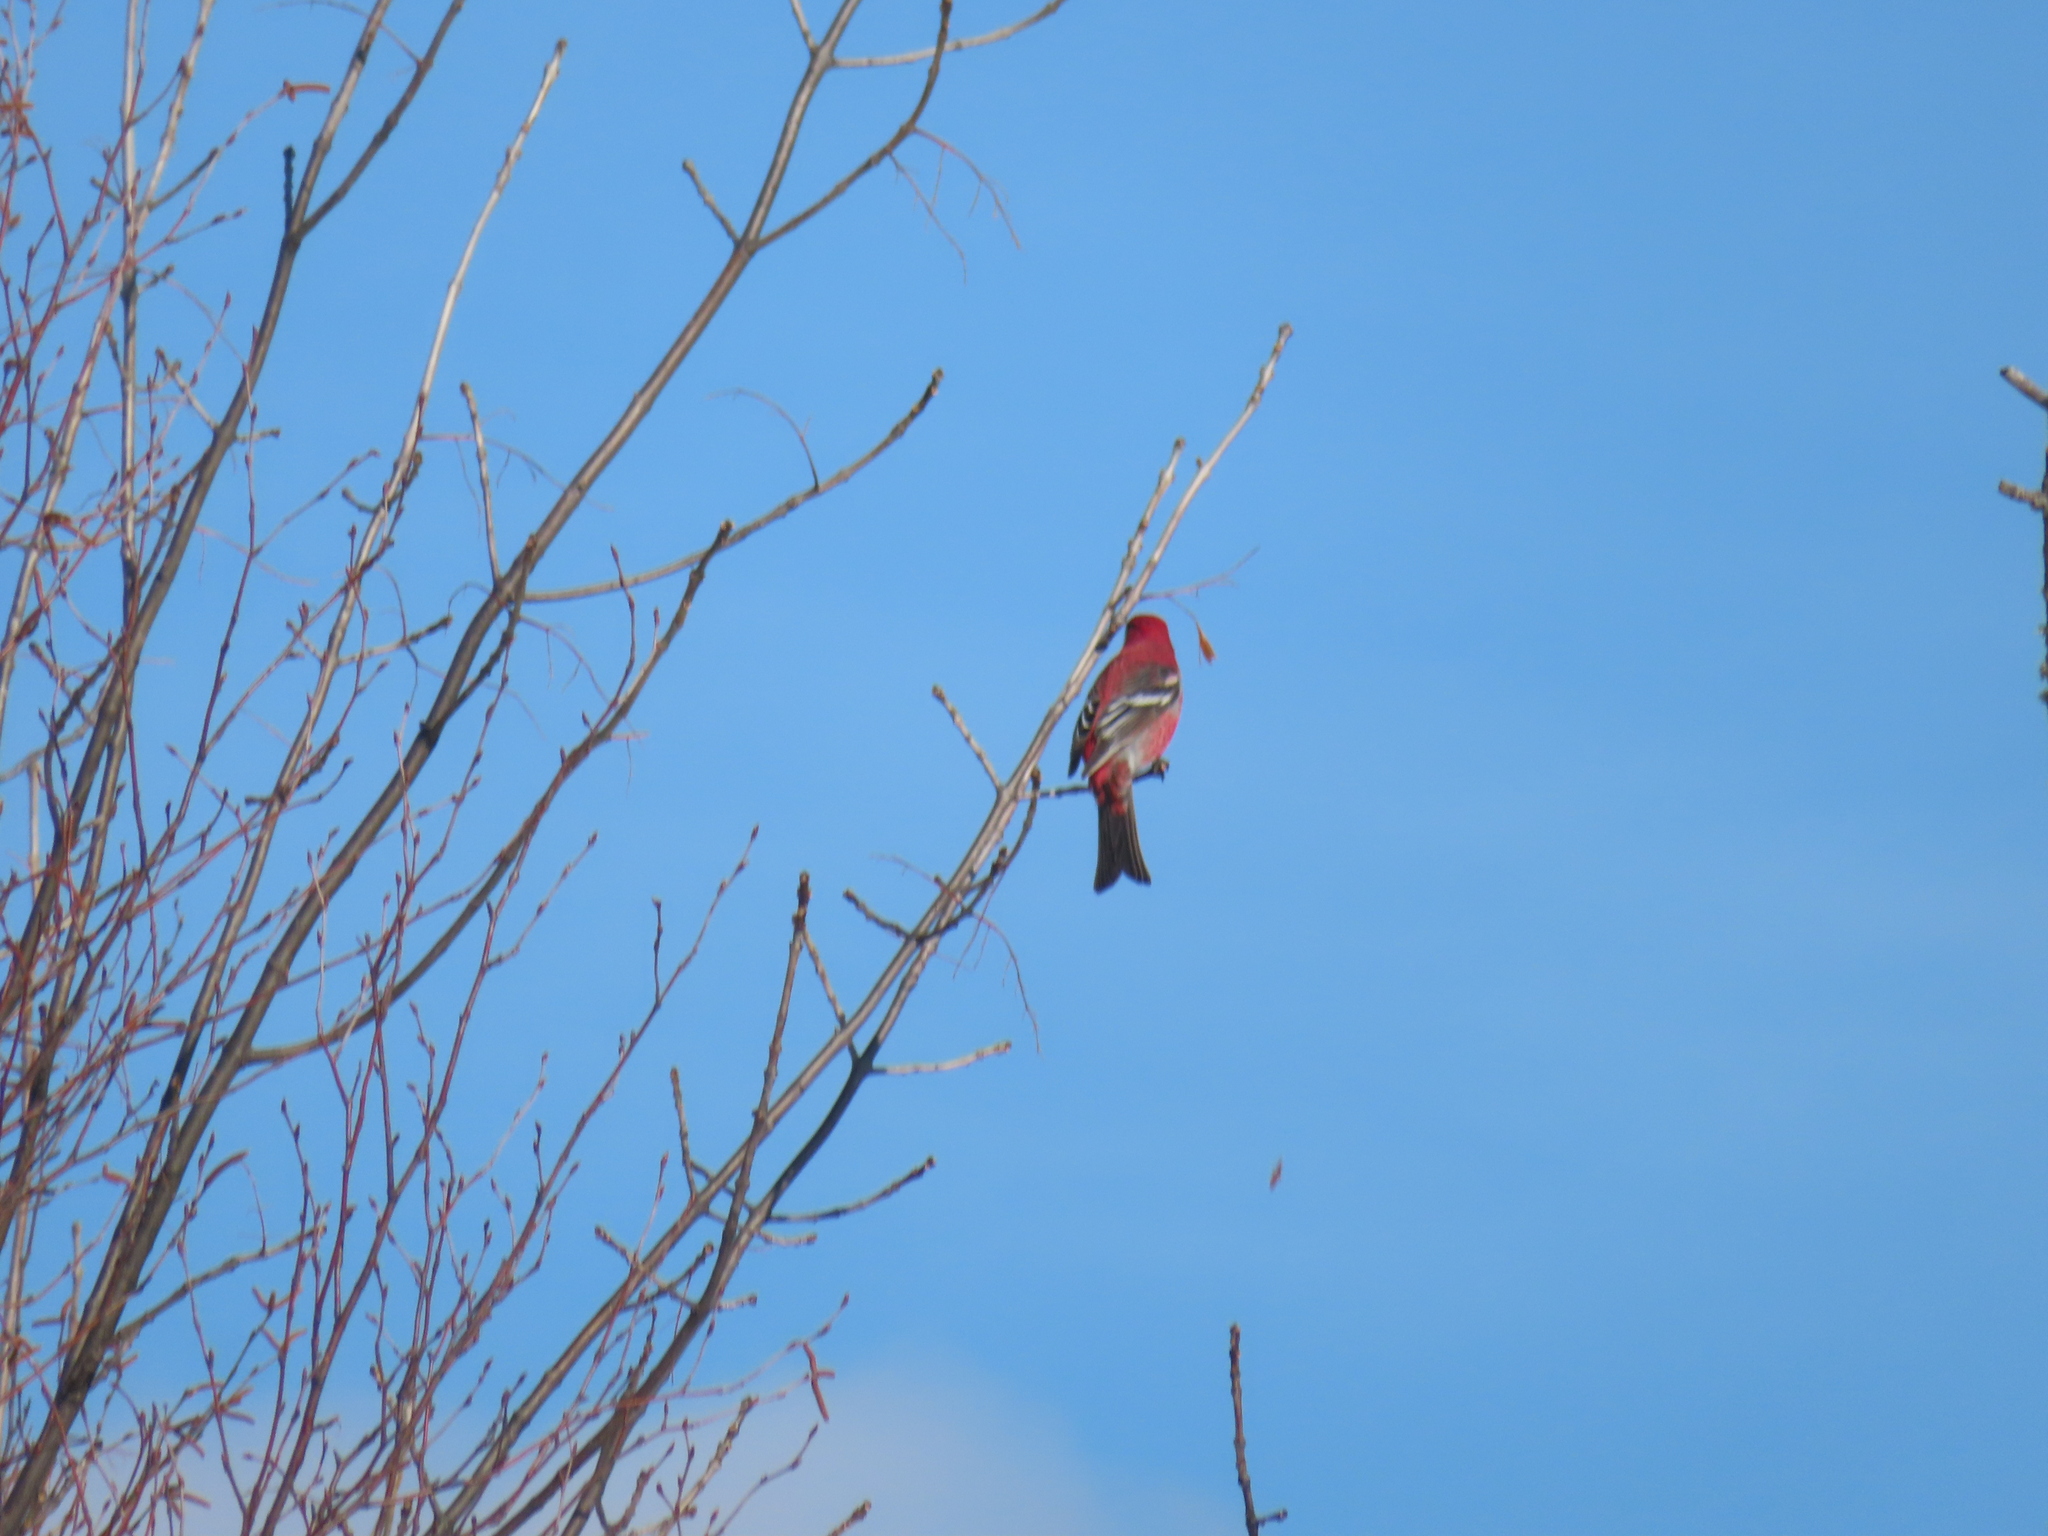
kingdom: Animalia
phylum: Chordata
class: Aves
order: Passeriformes
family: Fringillidae
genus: Pinicola
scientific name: Pinicola enucleator
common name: Pine grosbeak
